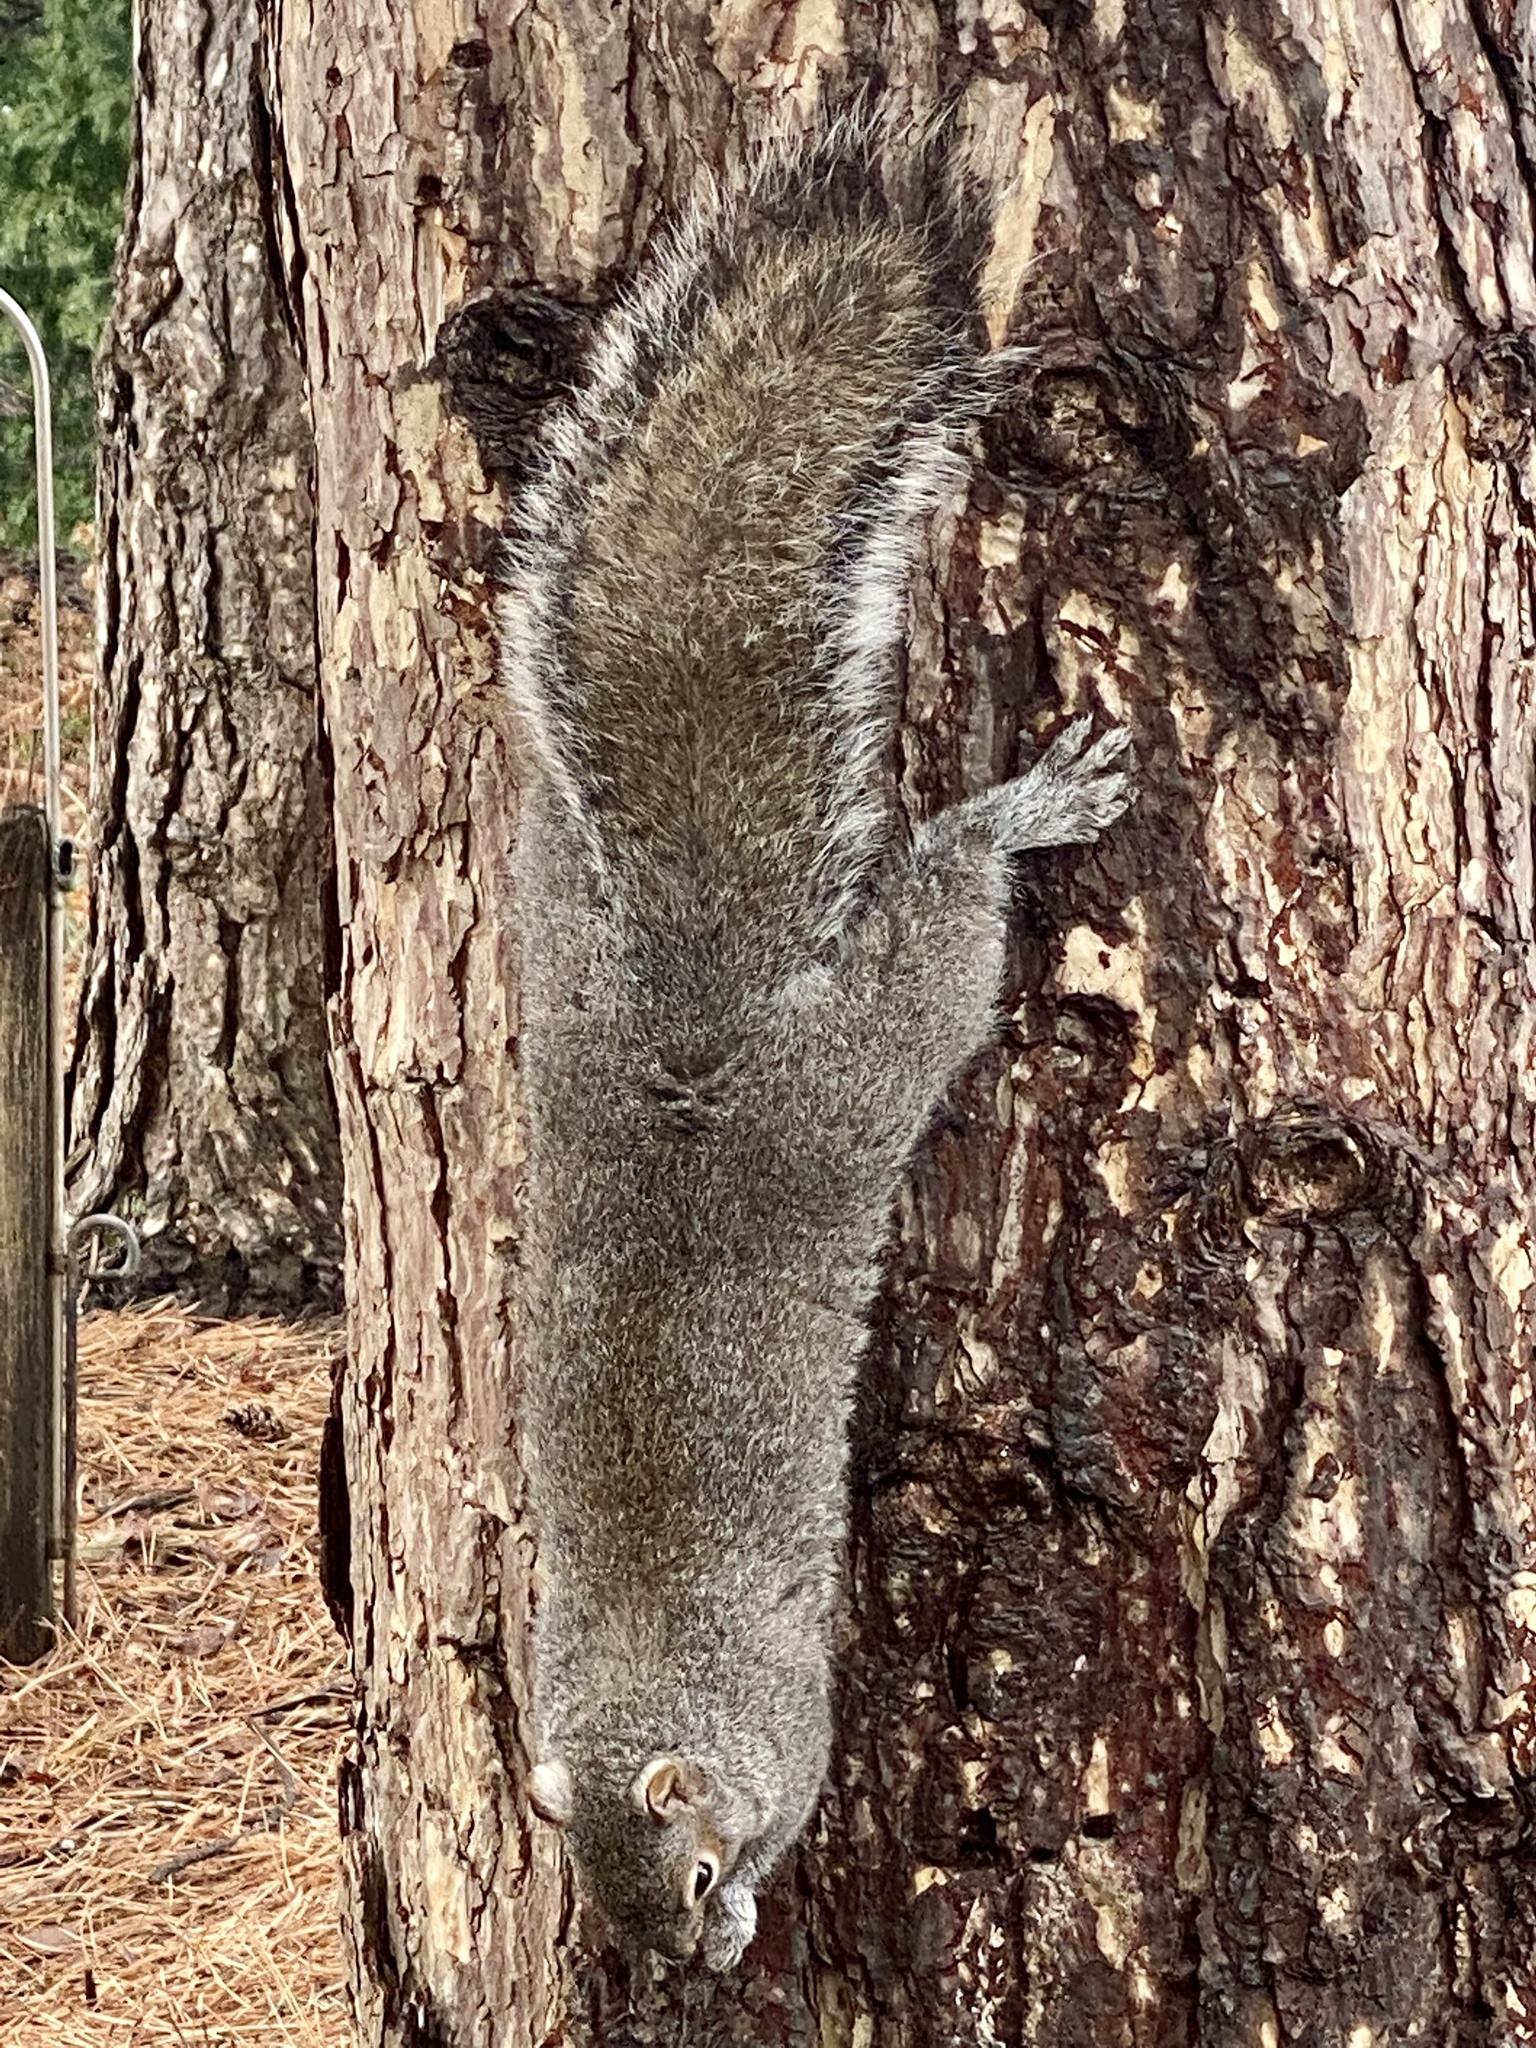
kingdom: Animalia
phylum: Chordata
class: Mammalia
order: Rodentia
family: Sciuridae
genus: Sciurus
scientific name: Sciurus carolinensis
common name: Eastern gray squirrel
